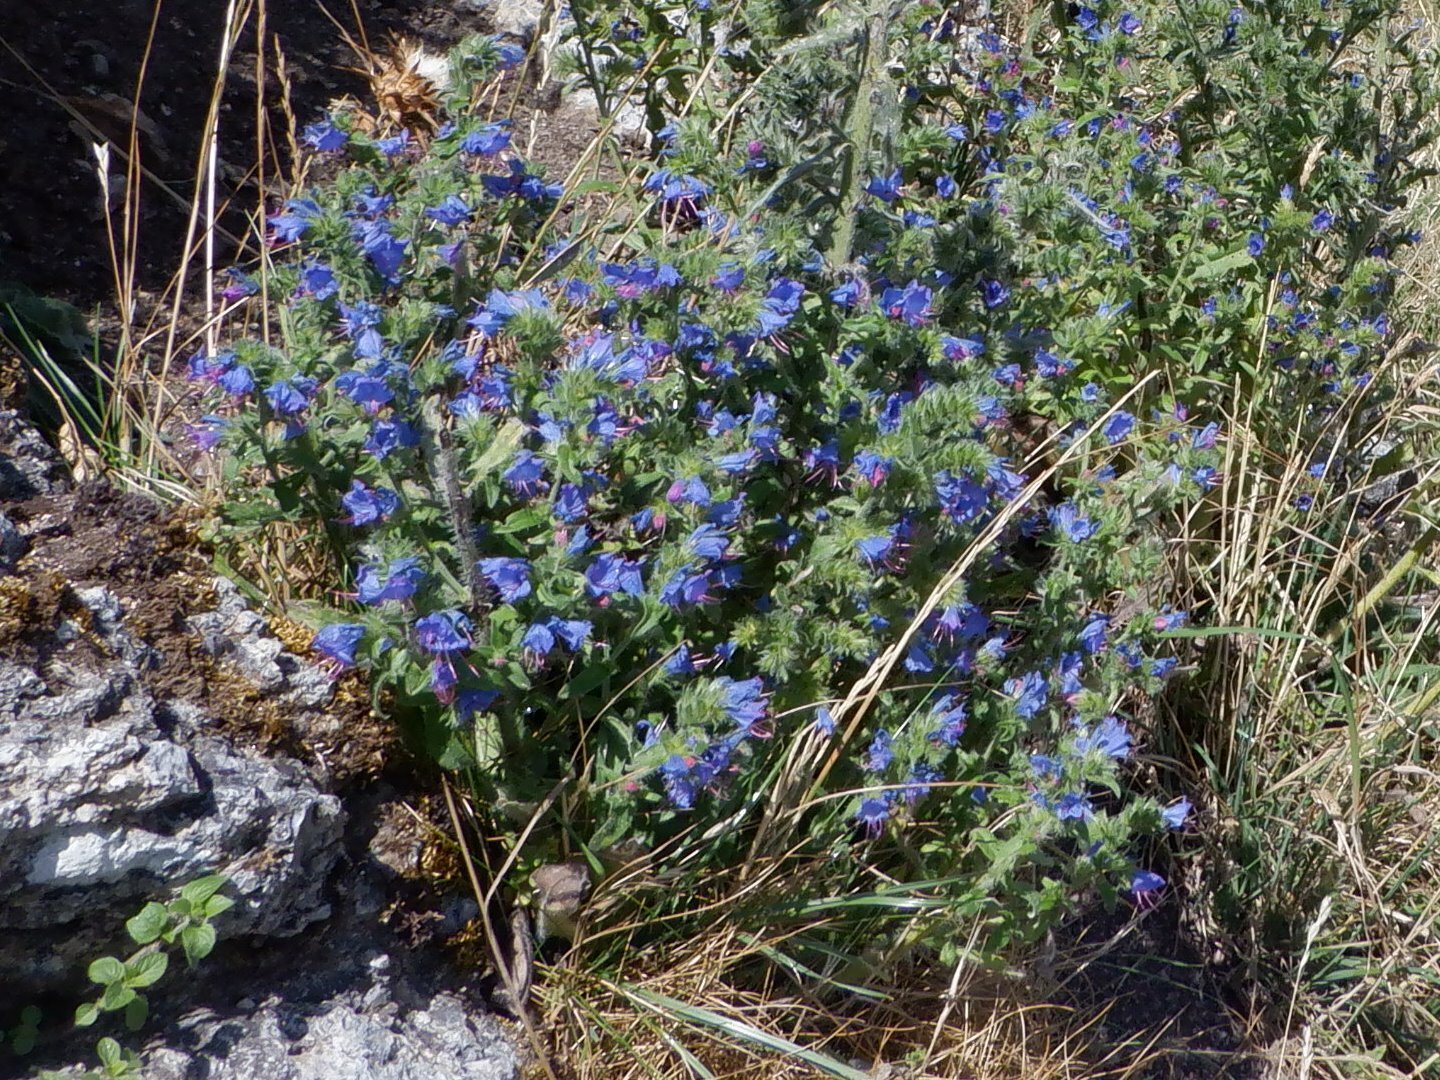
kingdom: Plantae
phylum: Tracheophyta
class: Magnoliopsida
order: Boraginales
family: Boraginaceae
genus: Echium
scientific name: Echium vulgare
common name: Common viper's bugloss
